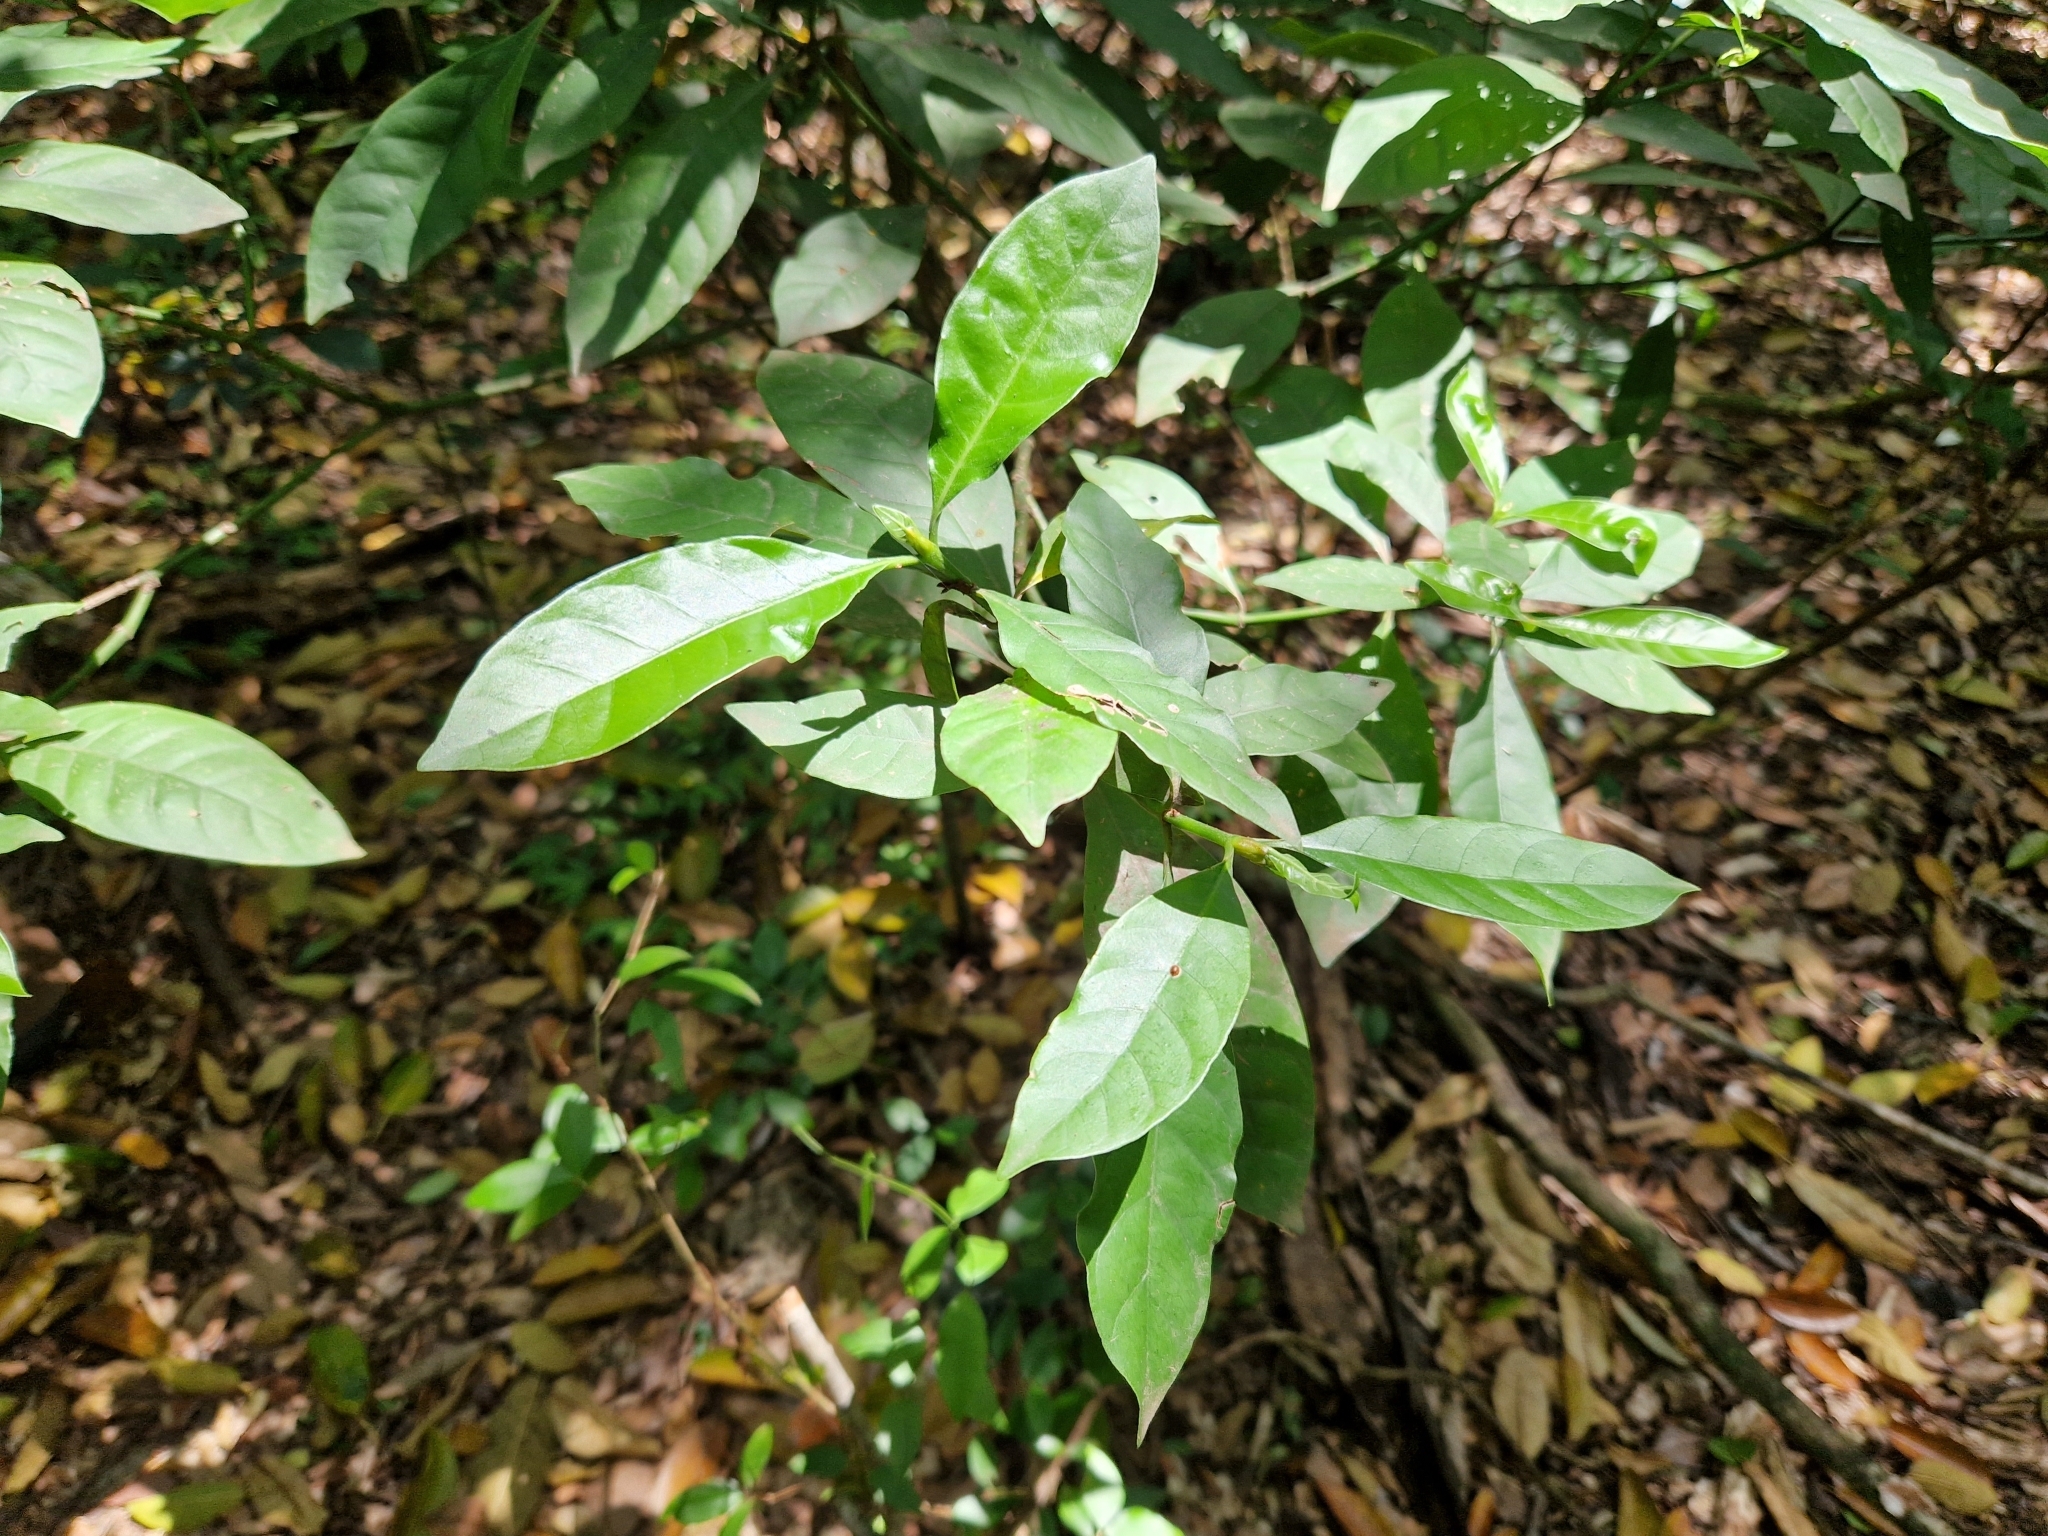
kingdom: Plantae
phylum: Tracheophyta
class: Magnoliopsida
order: Gentianales
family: Rubiaceae
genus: Psychotria
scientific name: Psychotria carthagenensis
